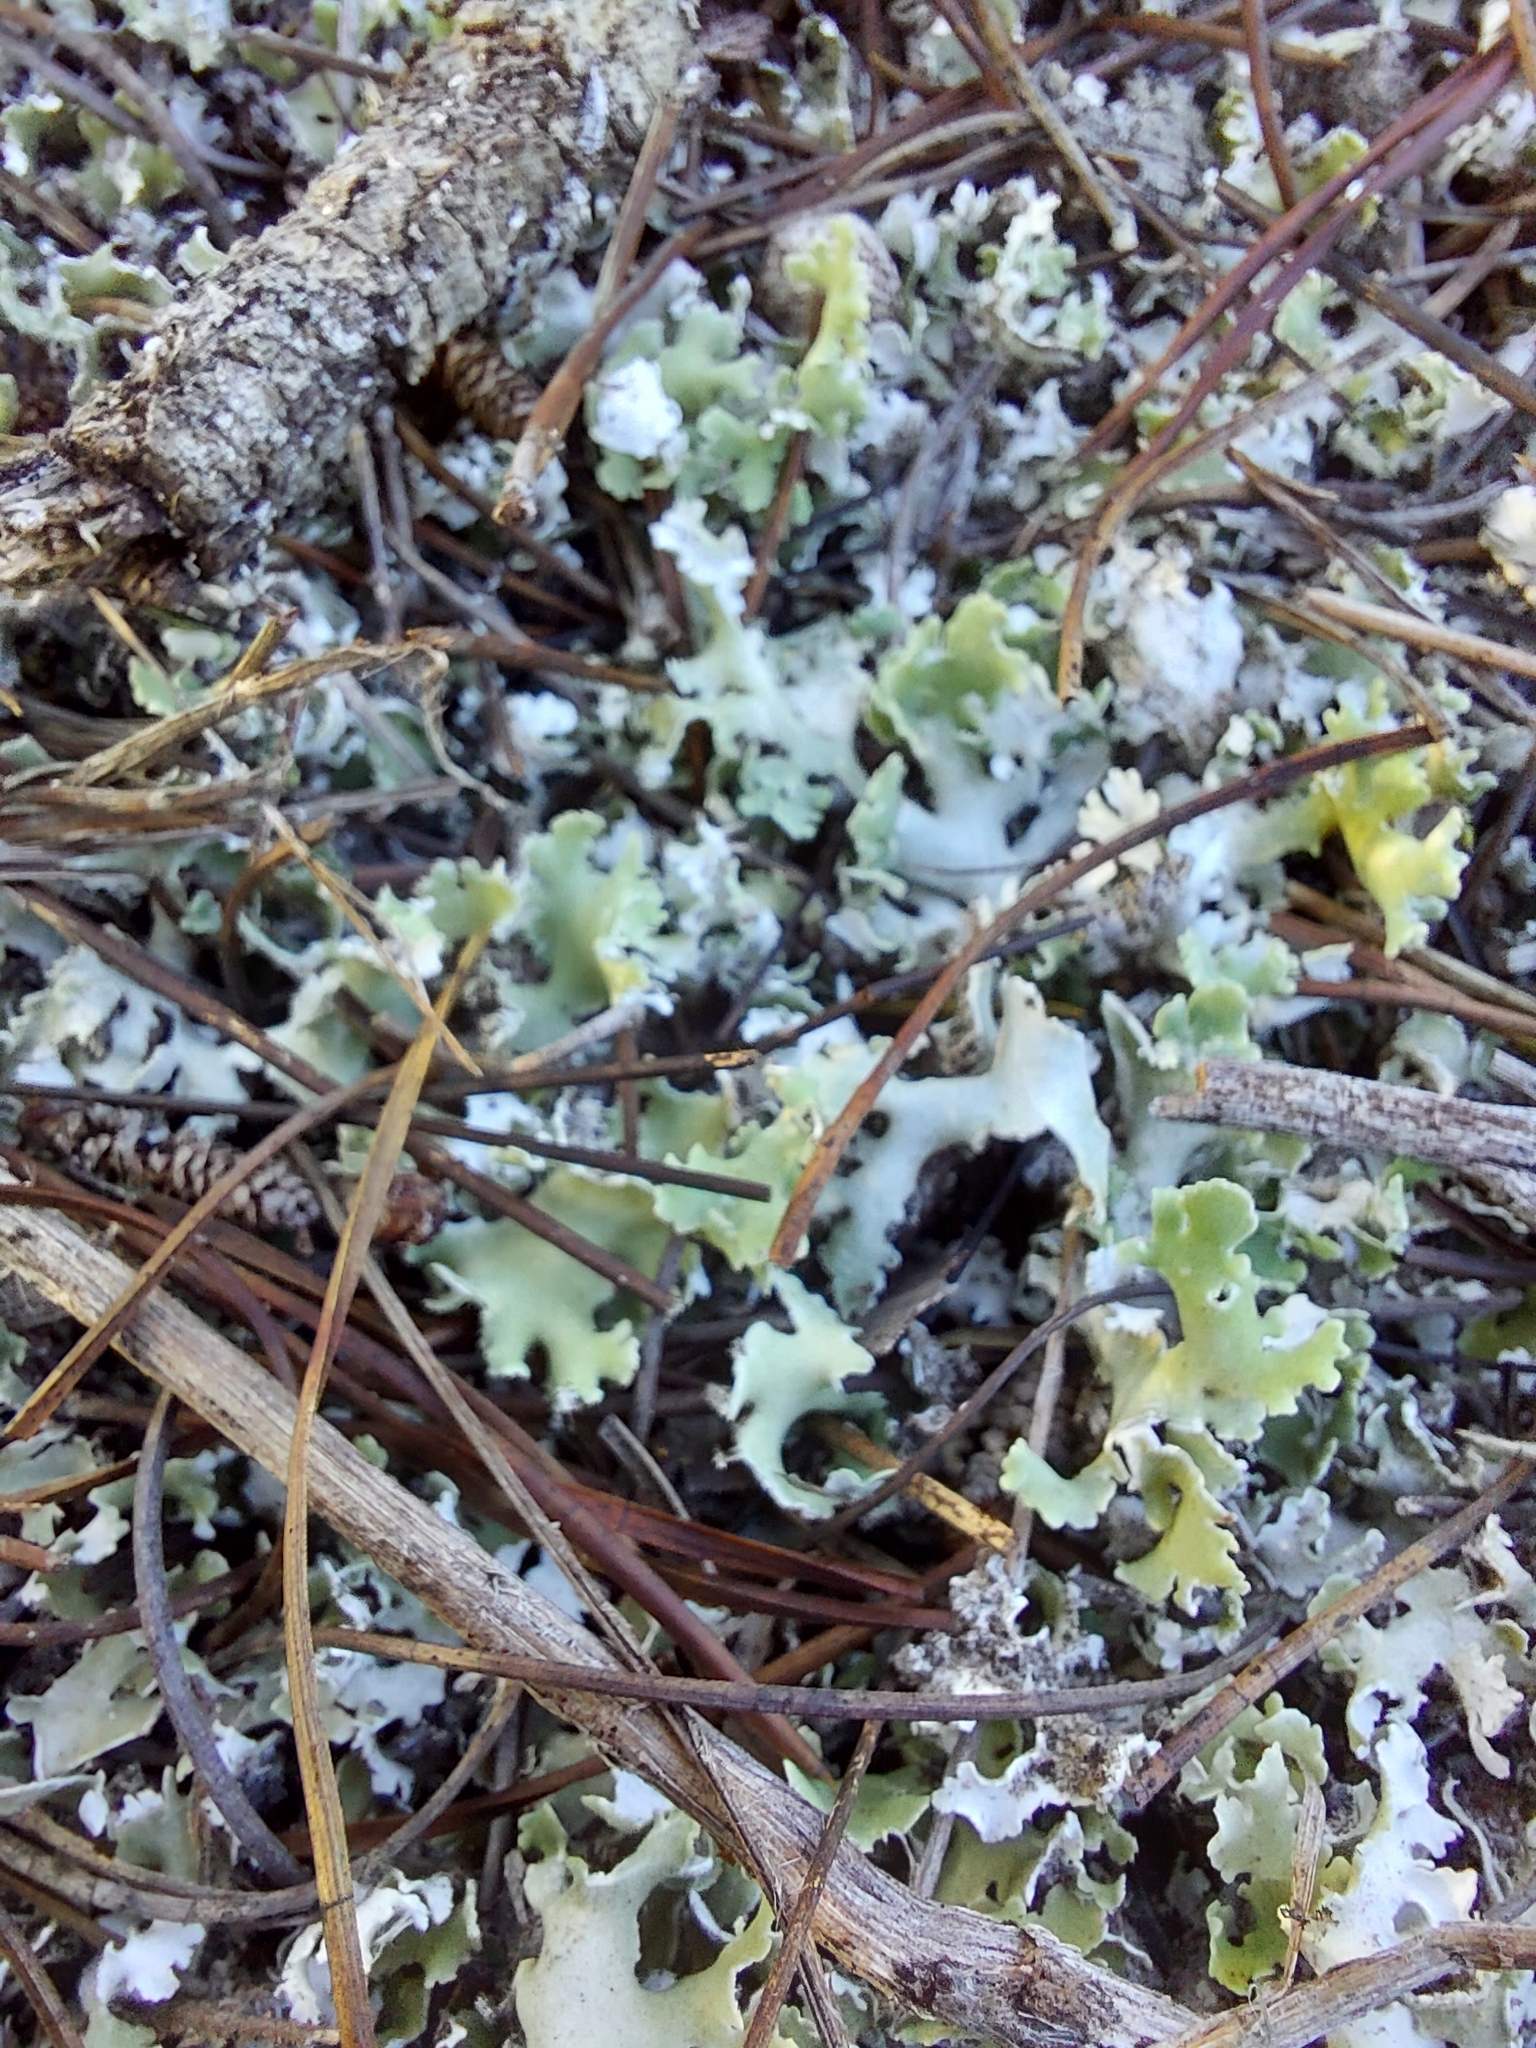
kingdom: Fungi
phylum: Ascomycota
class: Lecanoromycetes
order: Lecanorales
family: Cladoniaceae
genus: Cladonia
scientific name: Cladonia prostrata
